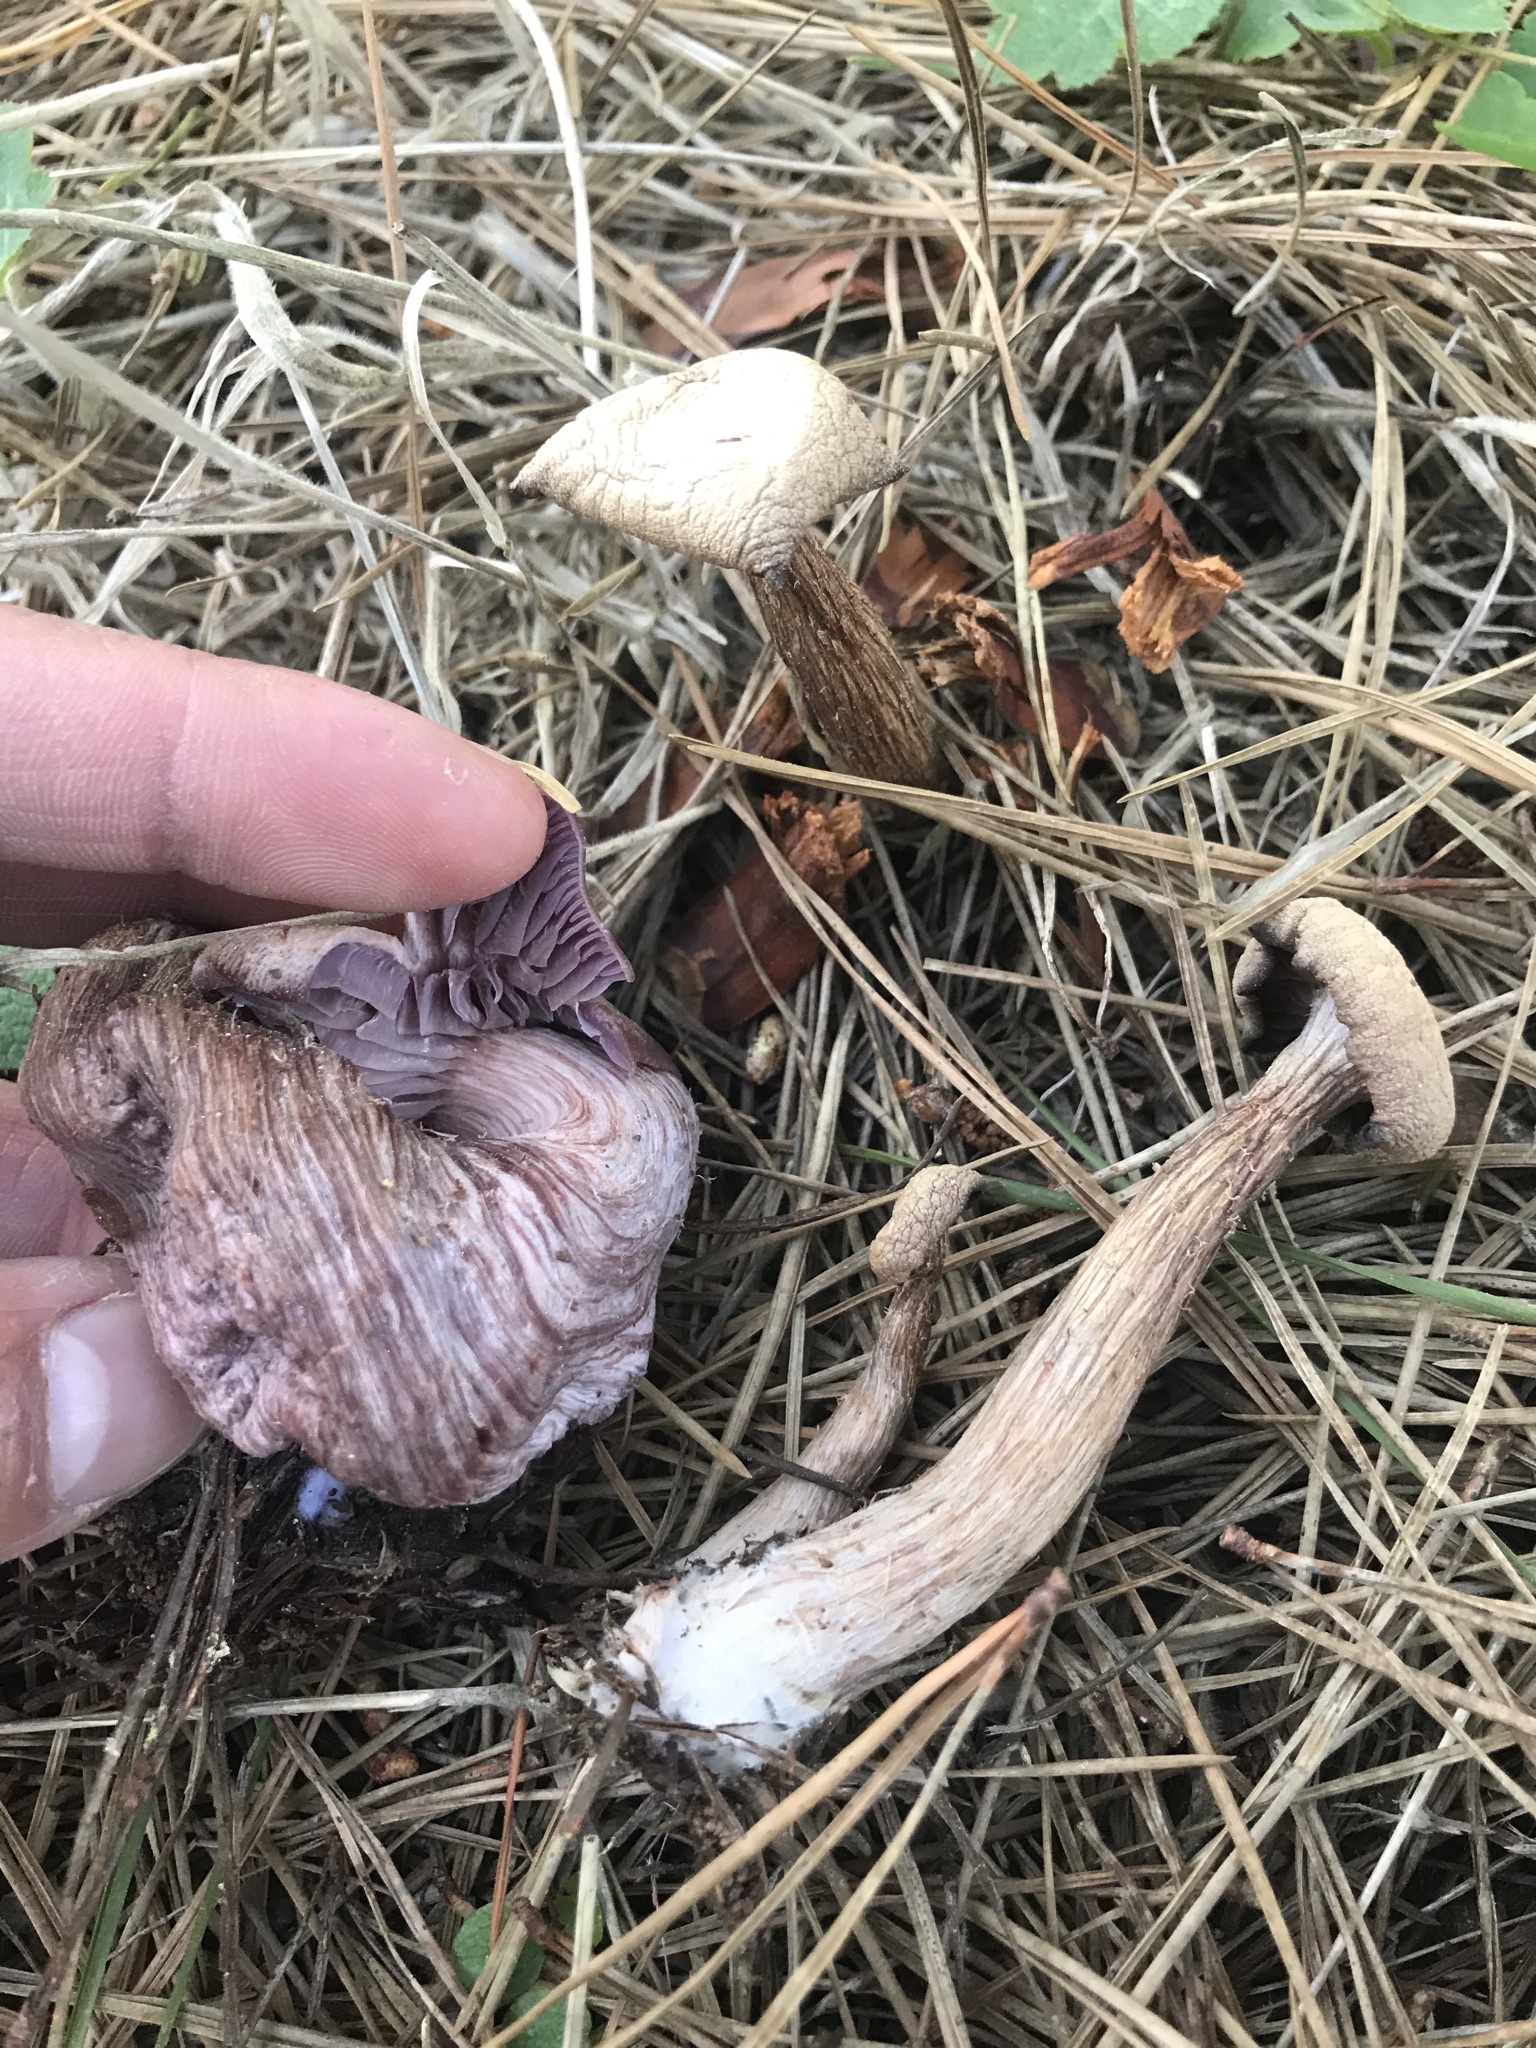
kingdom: Fungi
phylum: Basidiomycota
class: Agaricomycetes
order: Agaricales
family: Hydnangiaceae
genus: Laccaria
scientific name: Laccaria amethysteo-occidentalis
